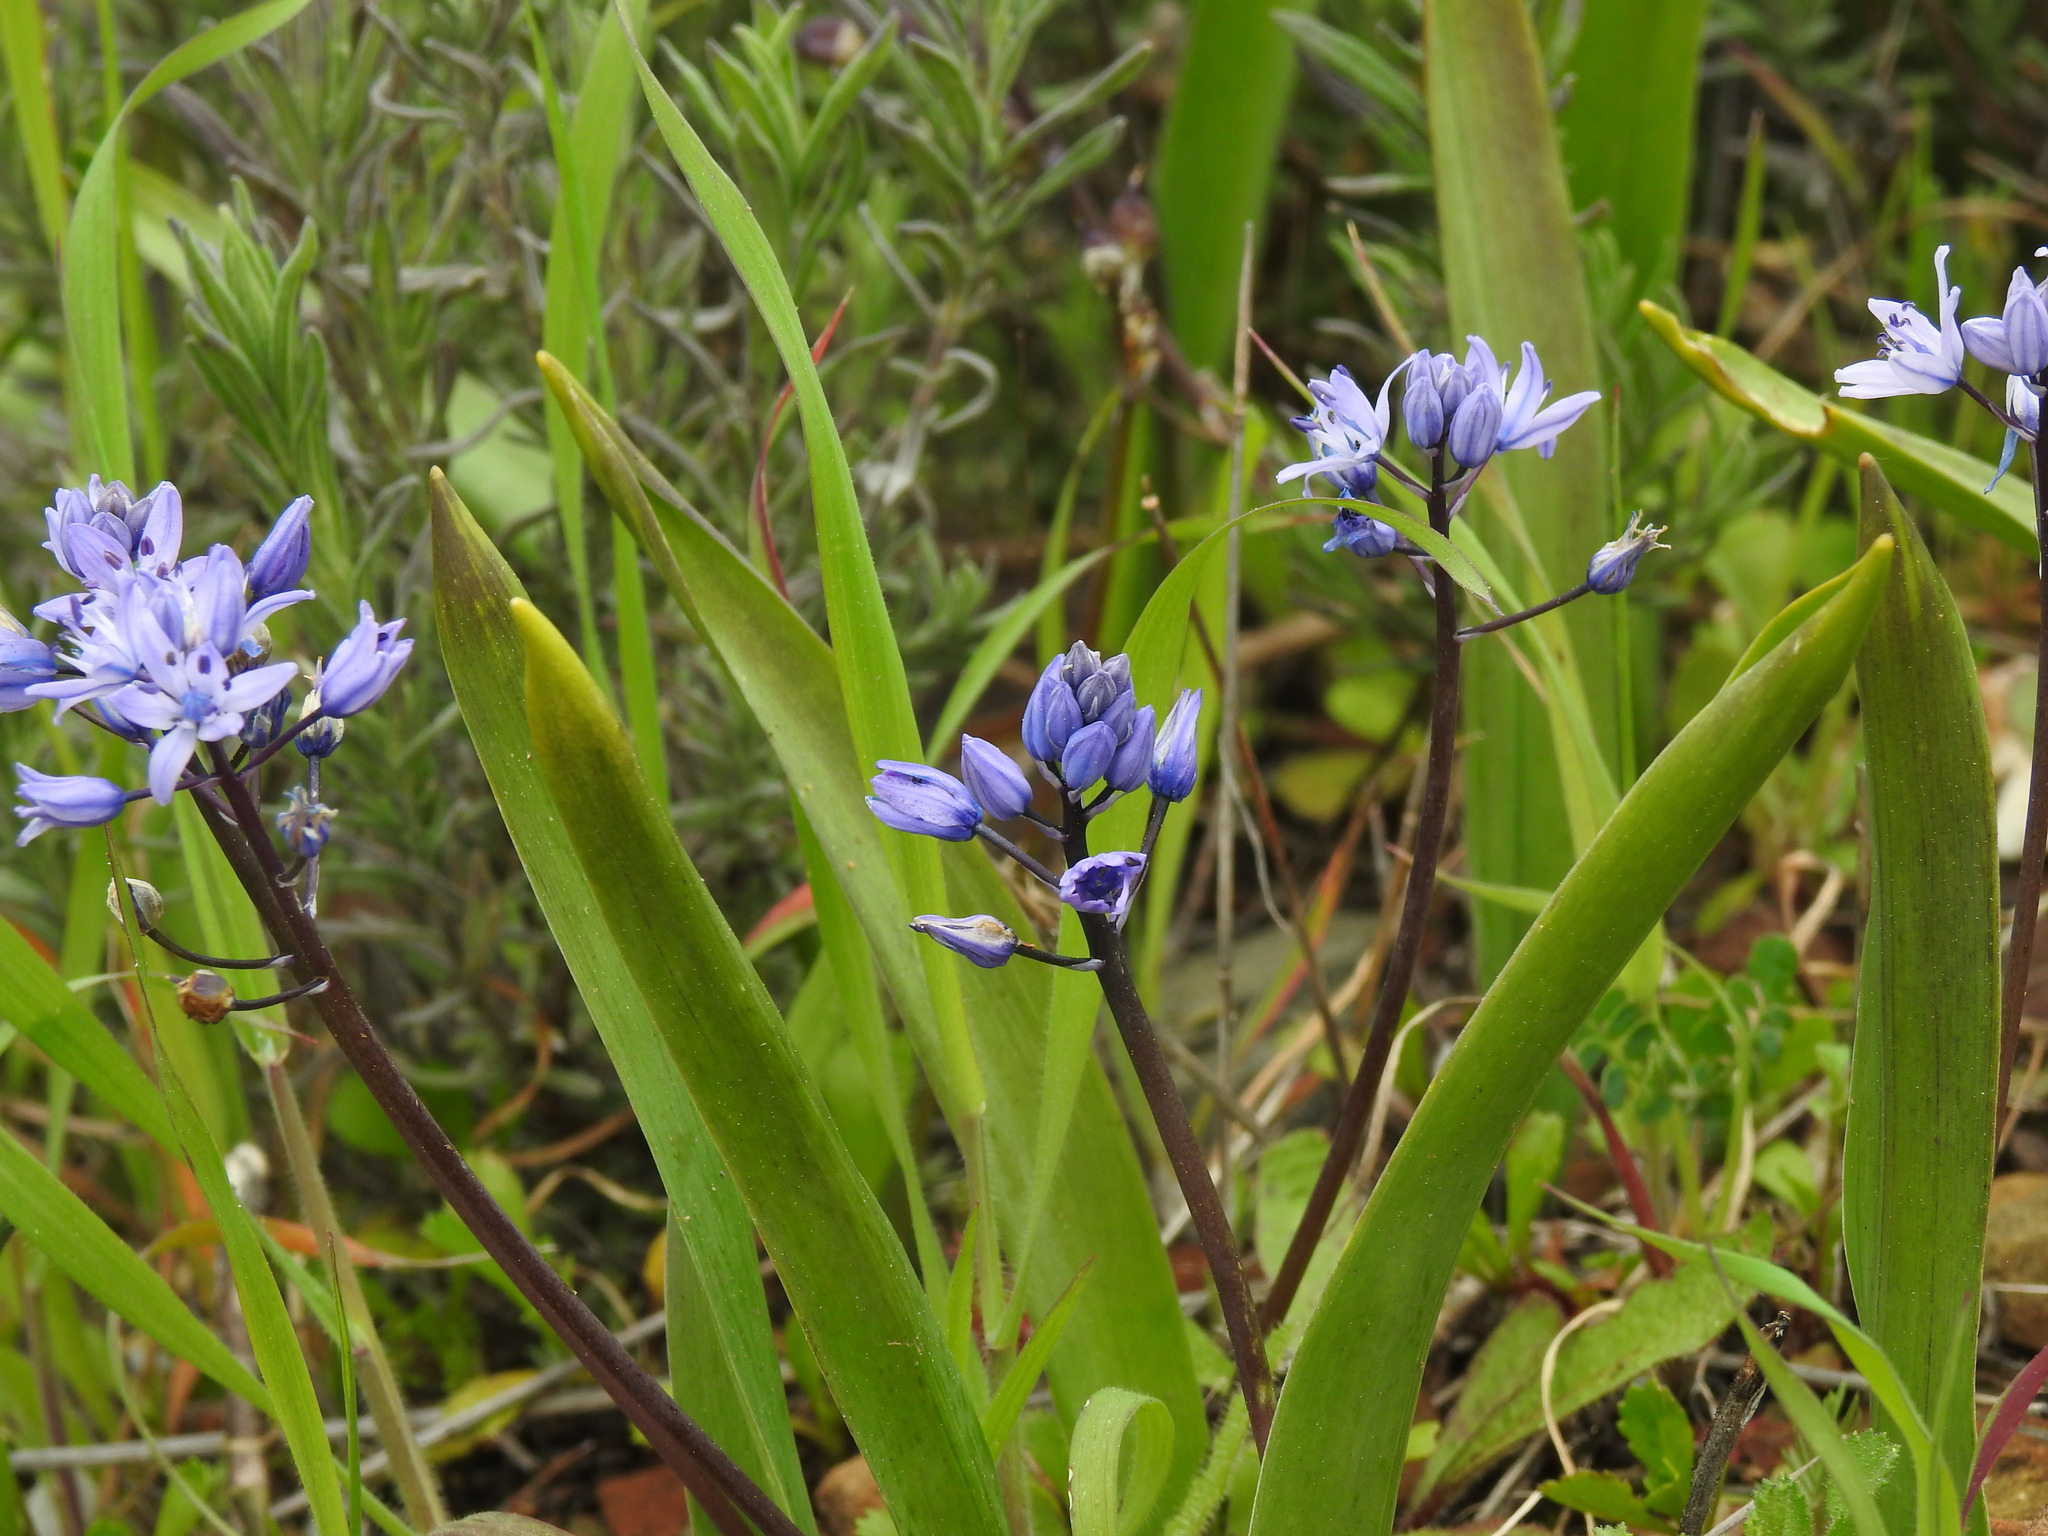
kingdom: Plantae
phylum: Tracheophyta
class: Liliopsida
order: Asparagales
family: Asparagaceae
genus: Scilla
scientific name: Scilla monophyllos
